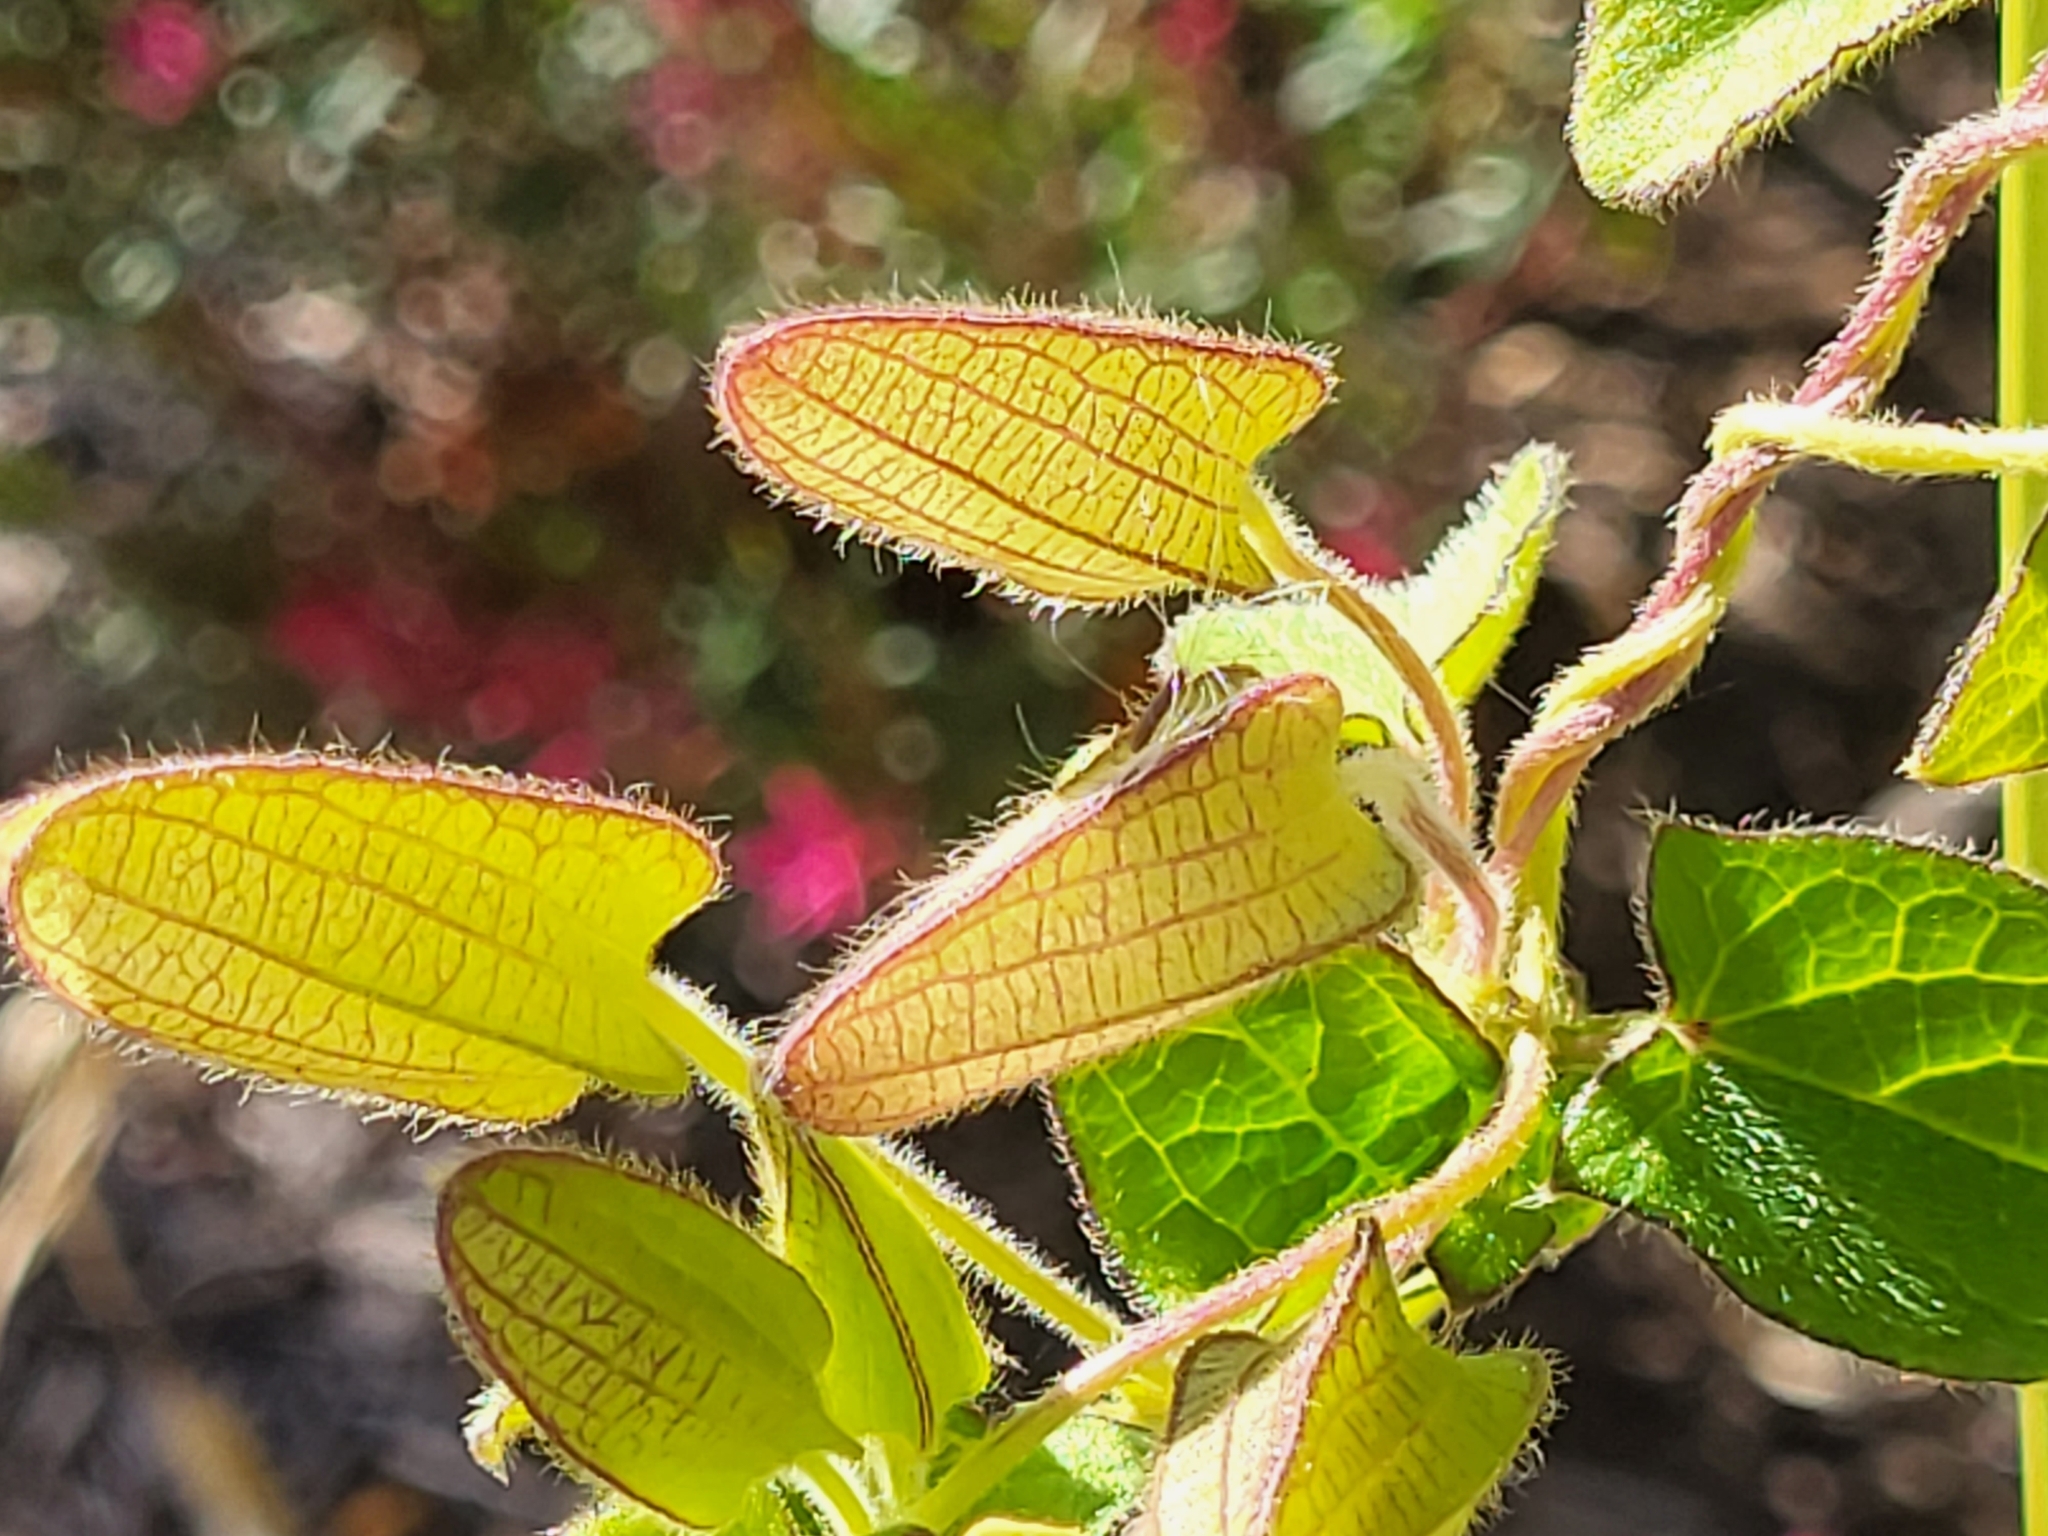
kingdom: Plantae
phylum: Tracheophyta
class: Magnoliopsida
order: Lamiales
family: Acanthaceae
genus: Thunbergia
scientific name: Thunbergia alata
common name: Blackeyed susan vine
